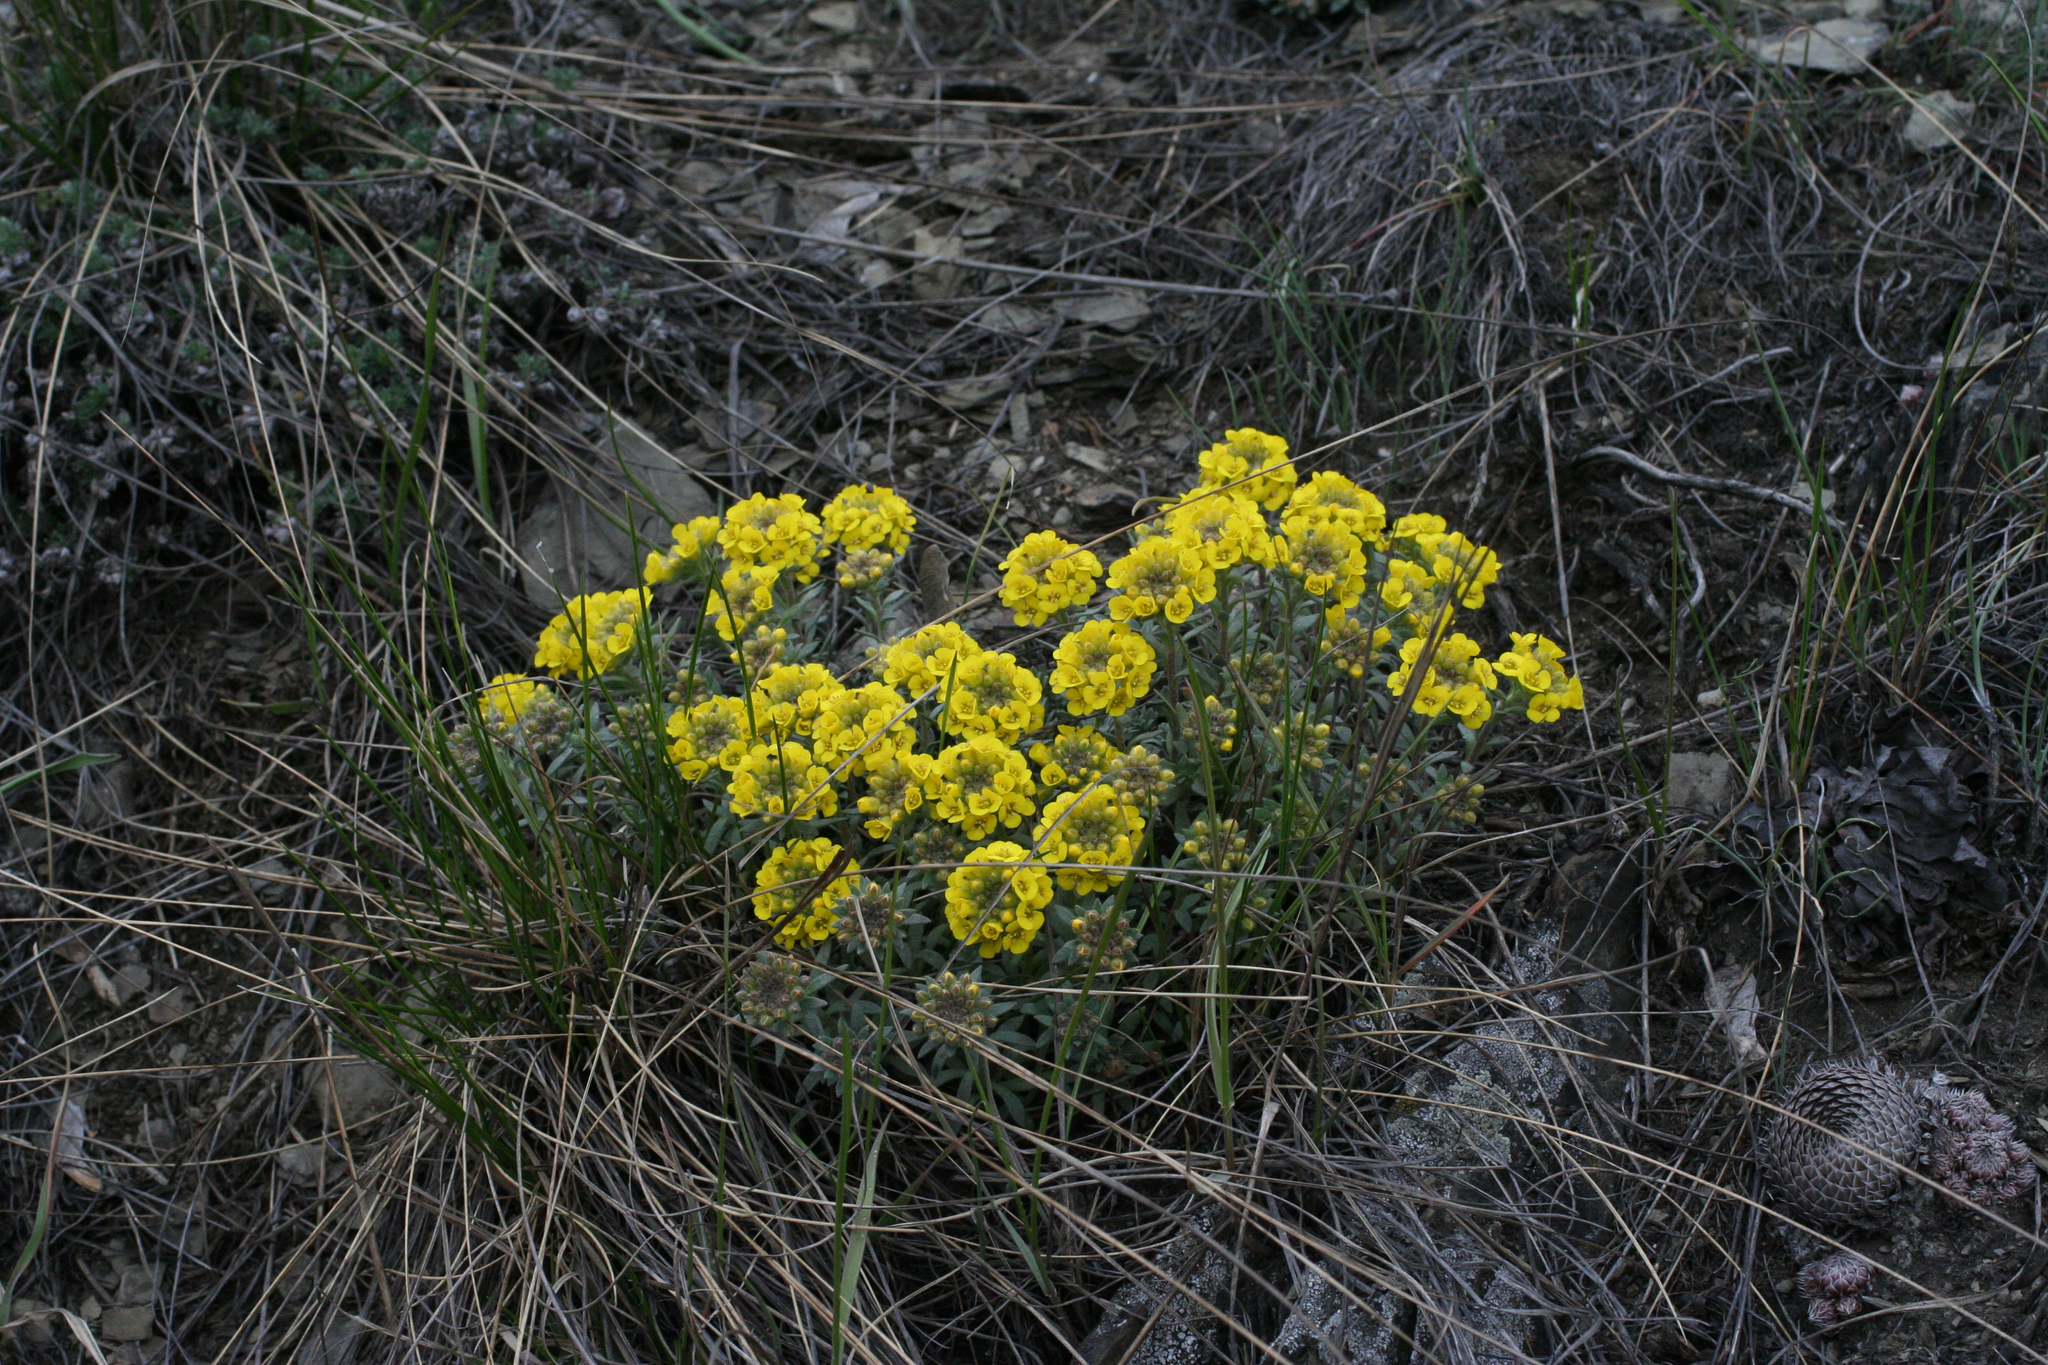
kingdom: Plantae
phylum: Tracheophyta
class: Magnoliopsida
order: Brassicales
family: Brassicaceae
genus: Alyssum
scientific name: Alyssum lenense
